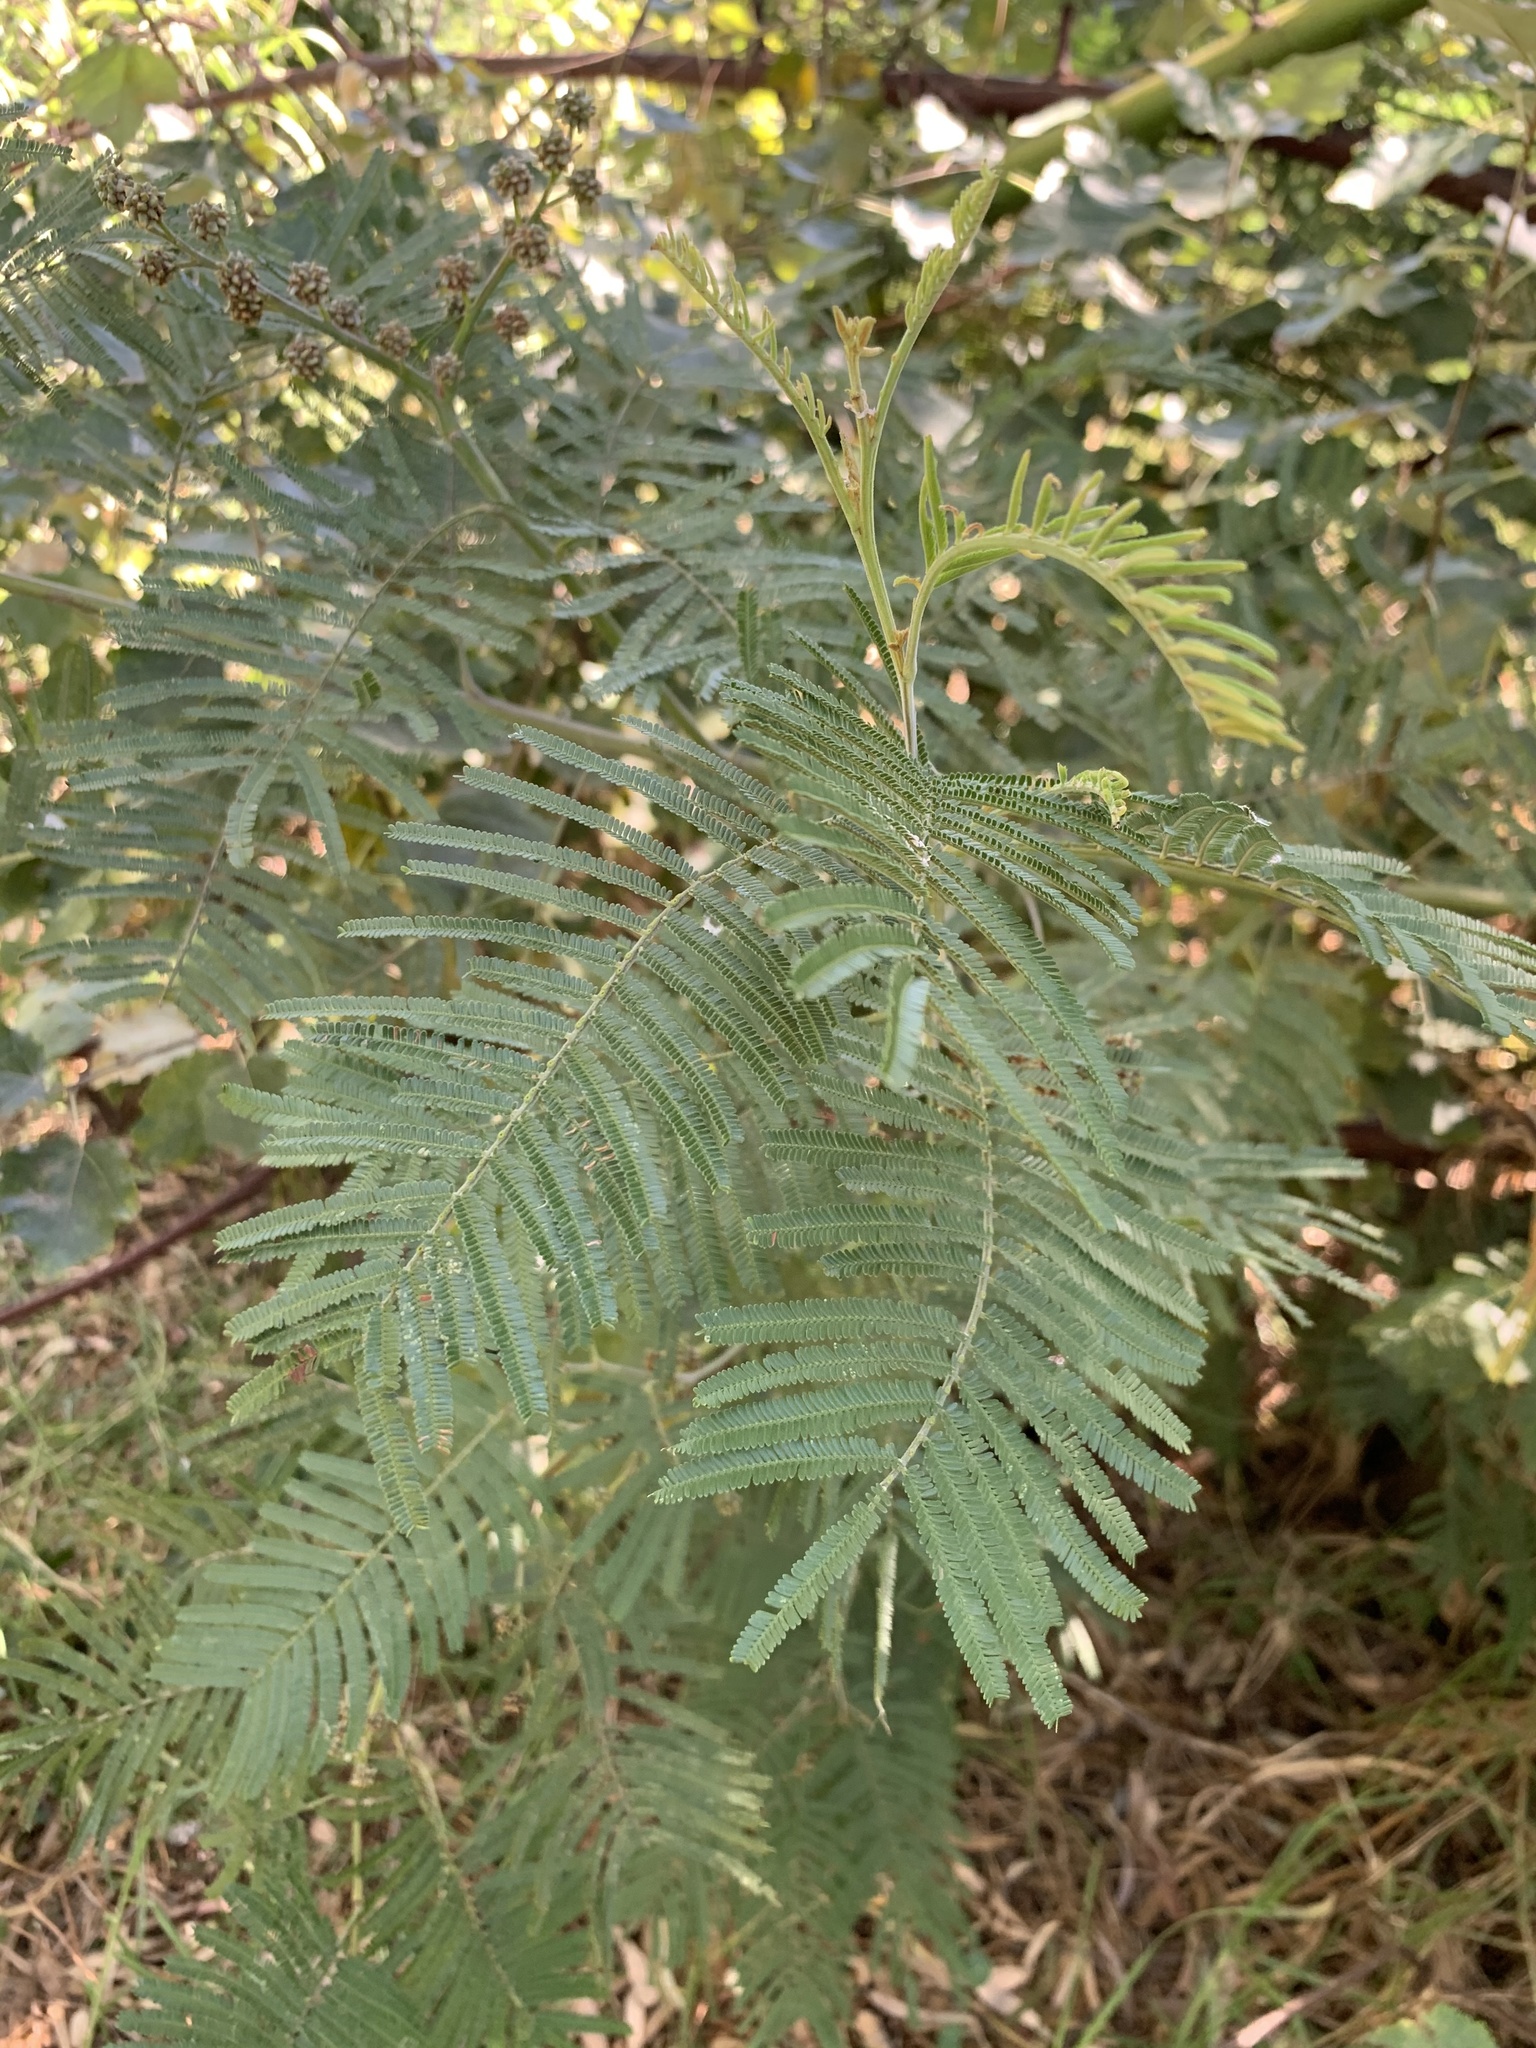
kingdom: Plantae
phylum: Tracheophyta
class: Magnoliopsida
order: Fabales
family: Fabaceae
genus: Acacia
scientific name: Acacia mearnsii
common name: Black wattle
